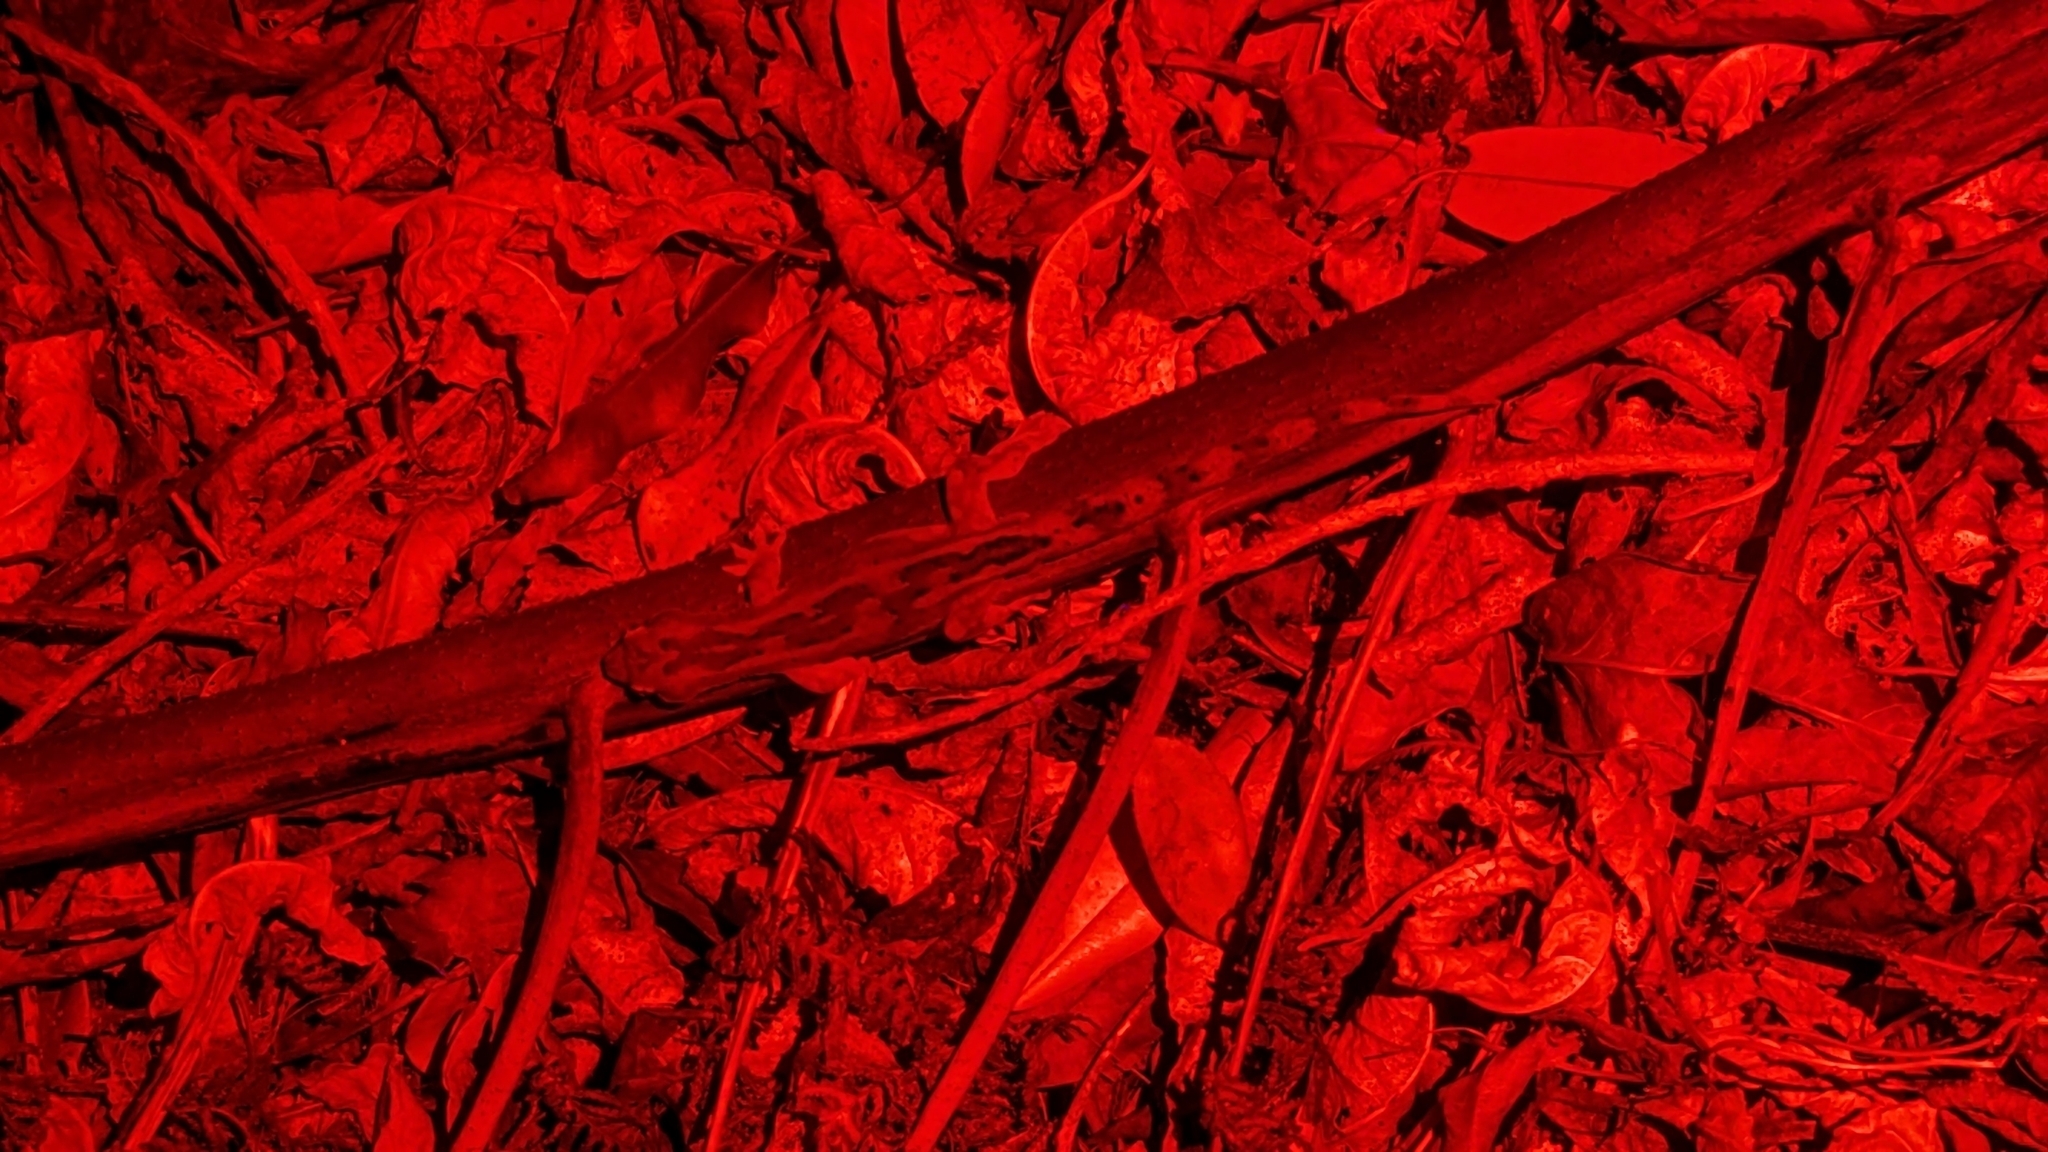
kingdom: Animalia
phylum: Chordata
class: Squamata
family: Diplodactylidae
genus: Woodworthia
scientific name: Woodworthia maculata
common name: Raukawa gecko
